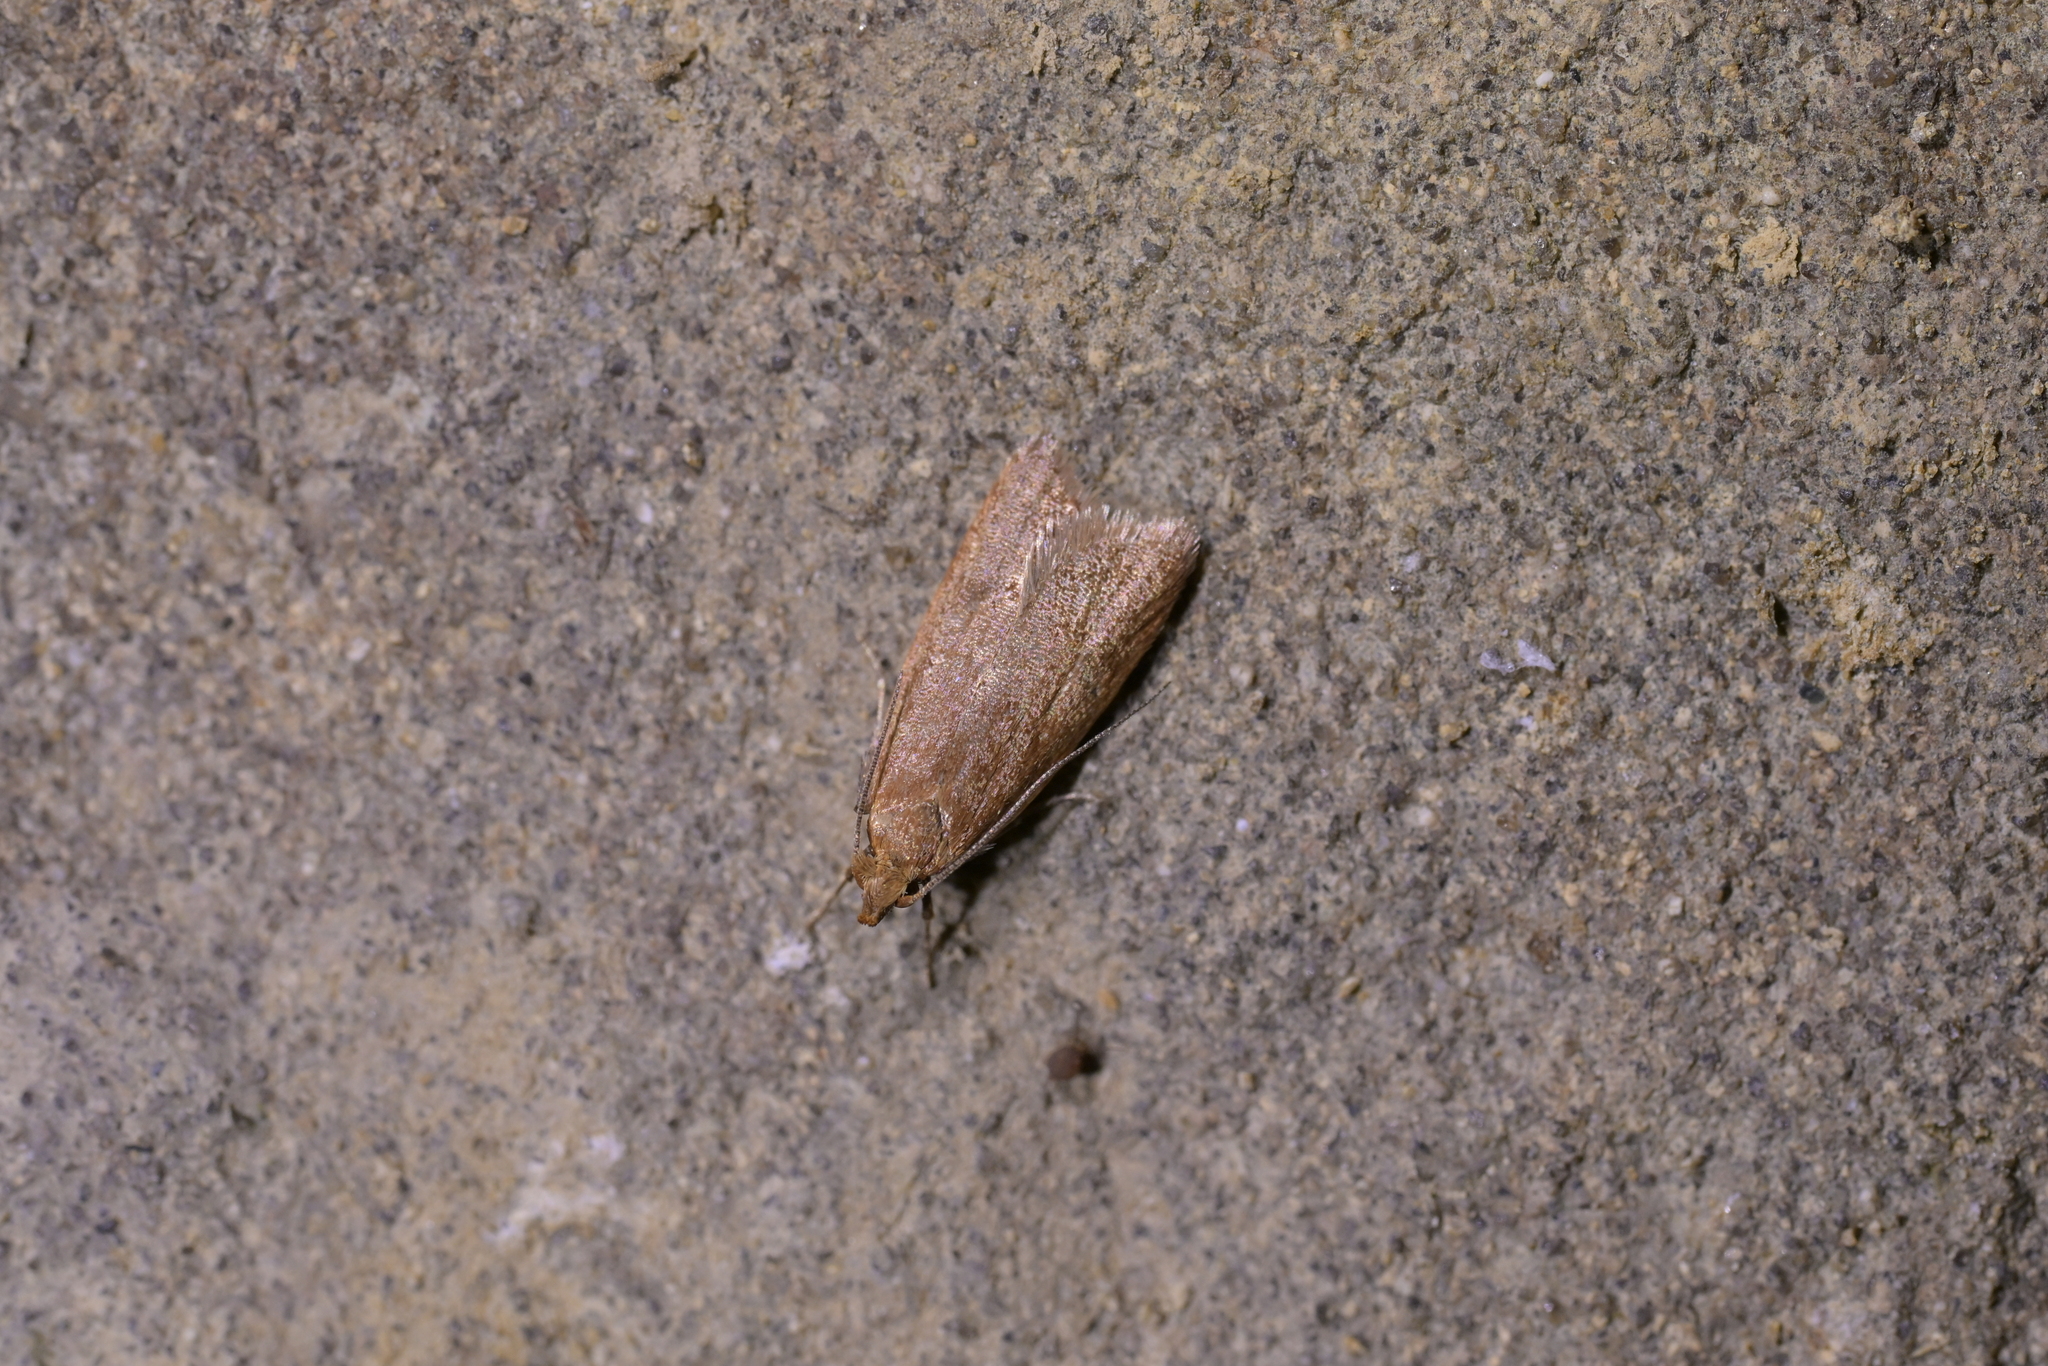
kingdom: Animalia
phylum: Arthropoda
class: Insecta
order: Lepidoptera
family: Oecophoridae
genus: Gymnobathra
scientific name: Gymnobathra sarcoxantha
